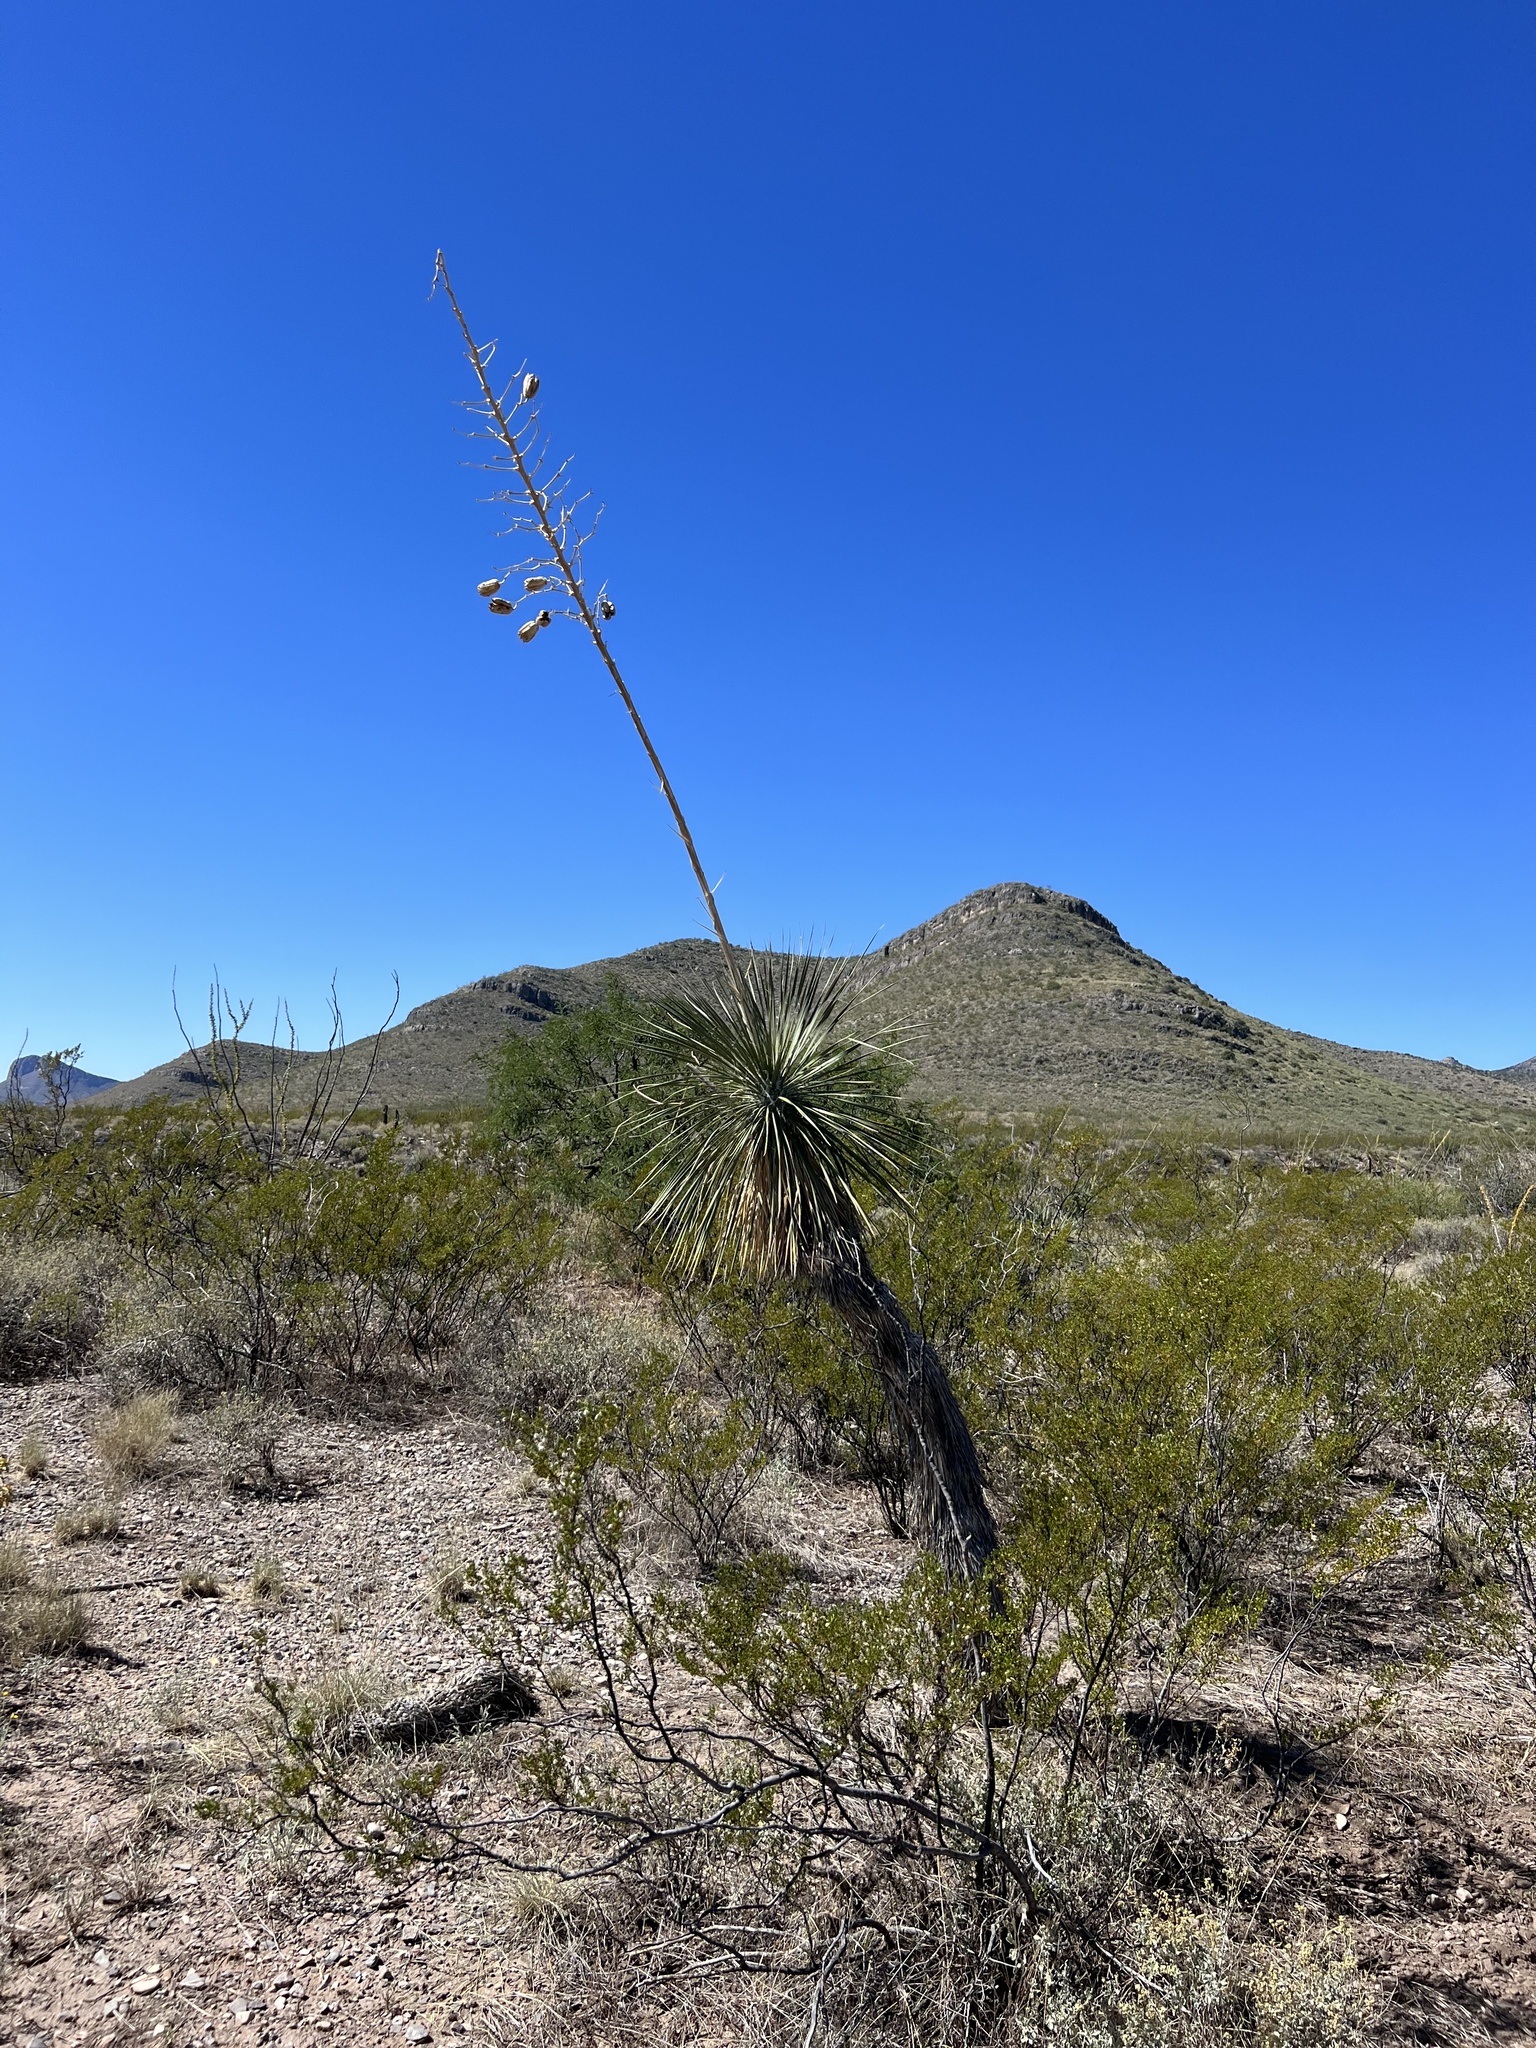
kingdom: Plantae
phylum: Tracheophyta
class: Liliopsida
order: Asparagales
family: Asparagaceae
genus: Yucca
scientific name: Yucca elata
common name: Palmella
